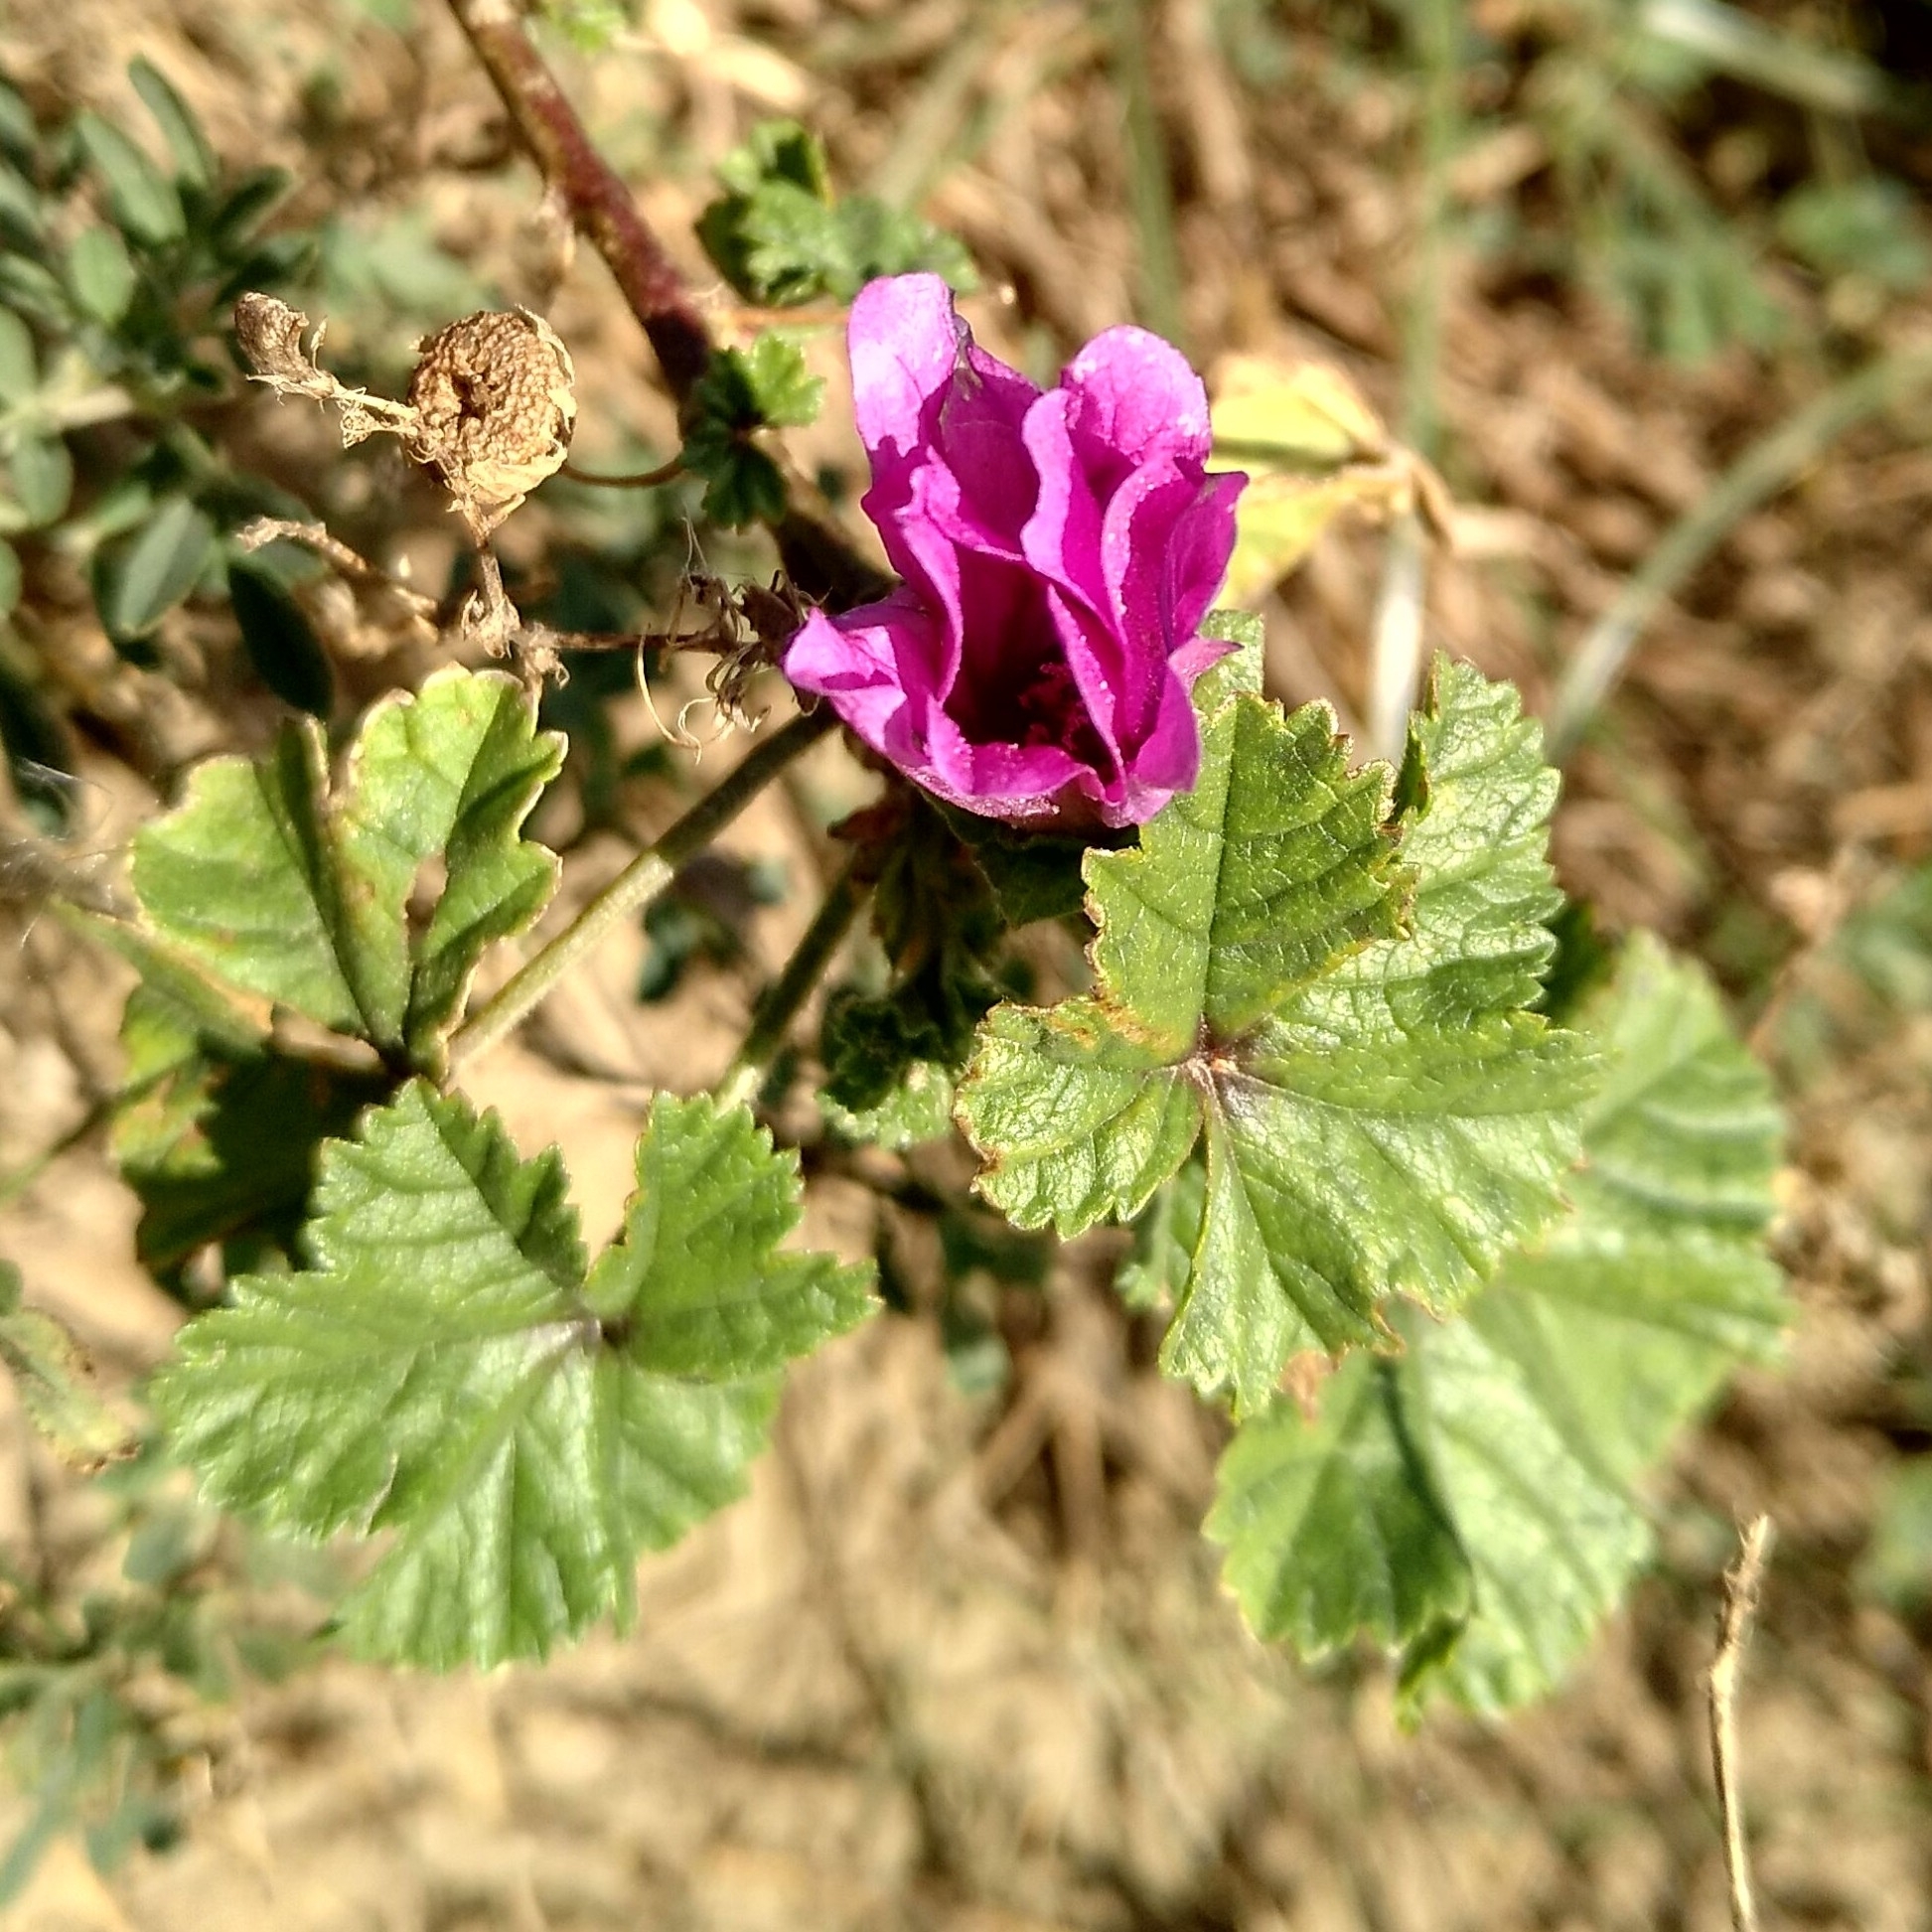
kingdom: Plantae
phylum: Tracheophyta
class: Magnoliopsida
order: Malvales
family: Malvaceae
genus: Malva
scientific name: Malva sylvestris
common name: Common mallow
